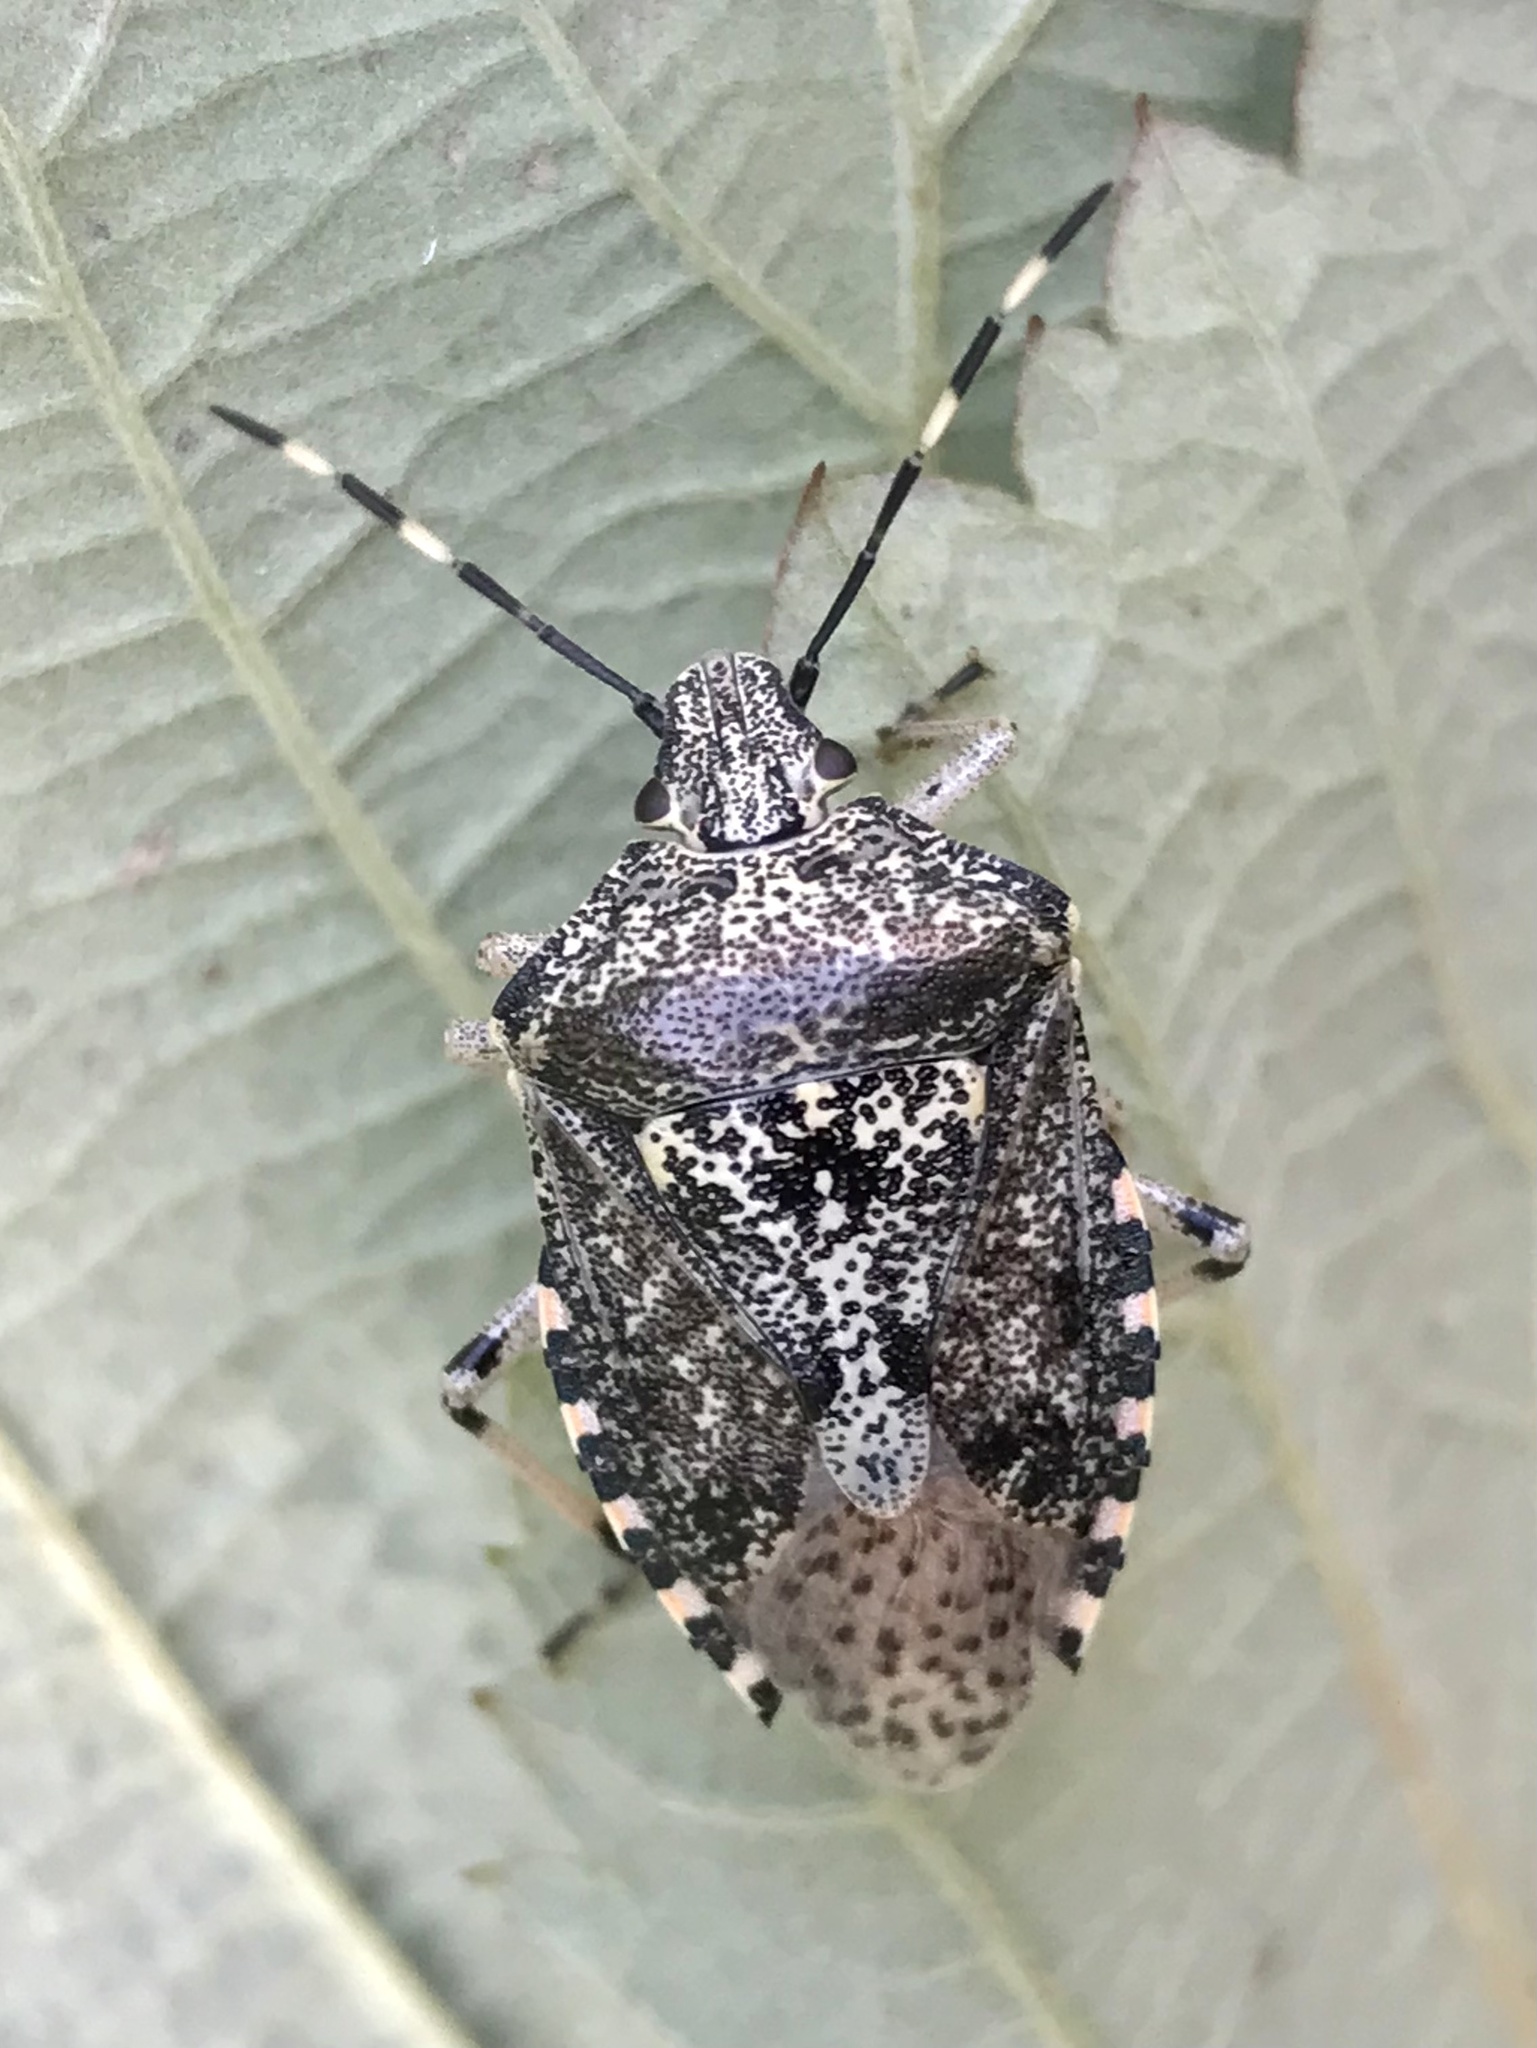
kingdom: Animalia
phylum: Arthropoda
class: Insecta
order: Hemiptera
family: Pentatomidae
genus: Rhaphigaster
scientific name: Rhaphigaster nebulosa
